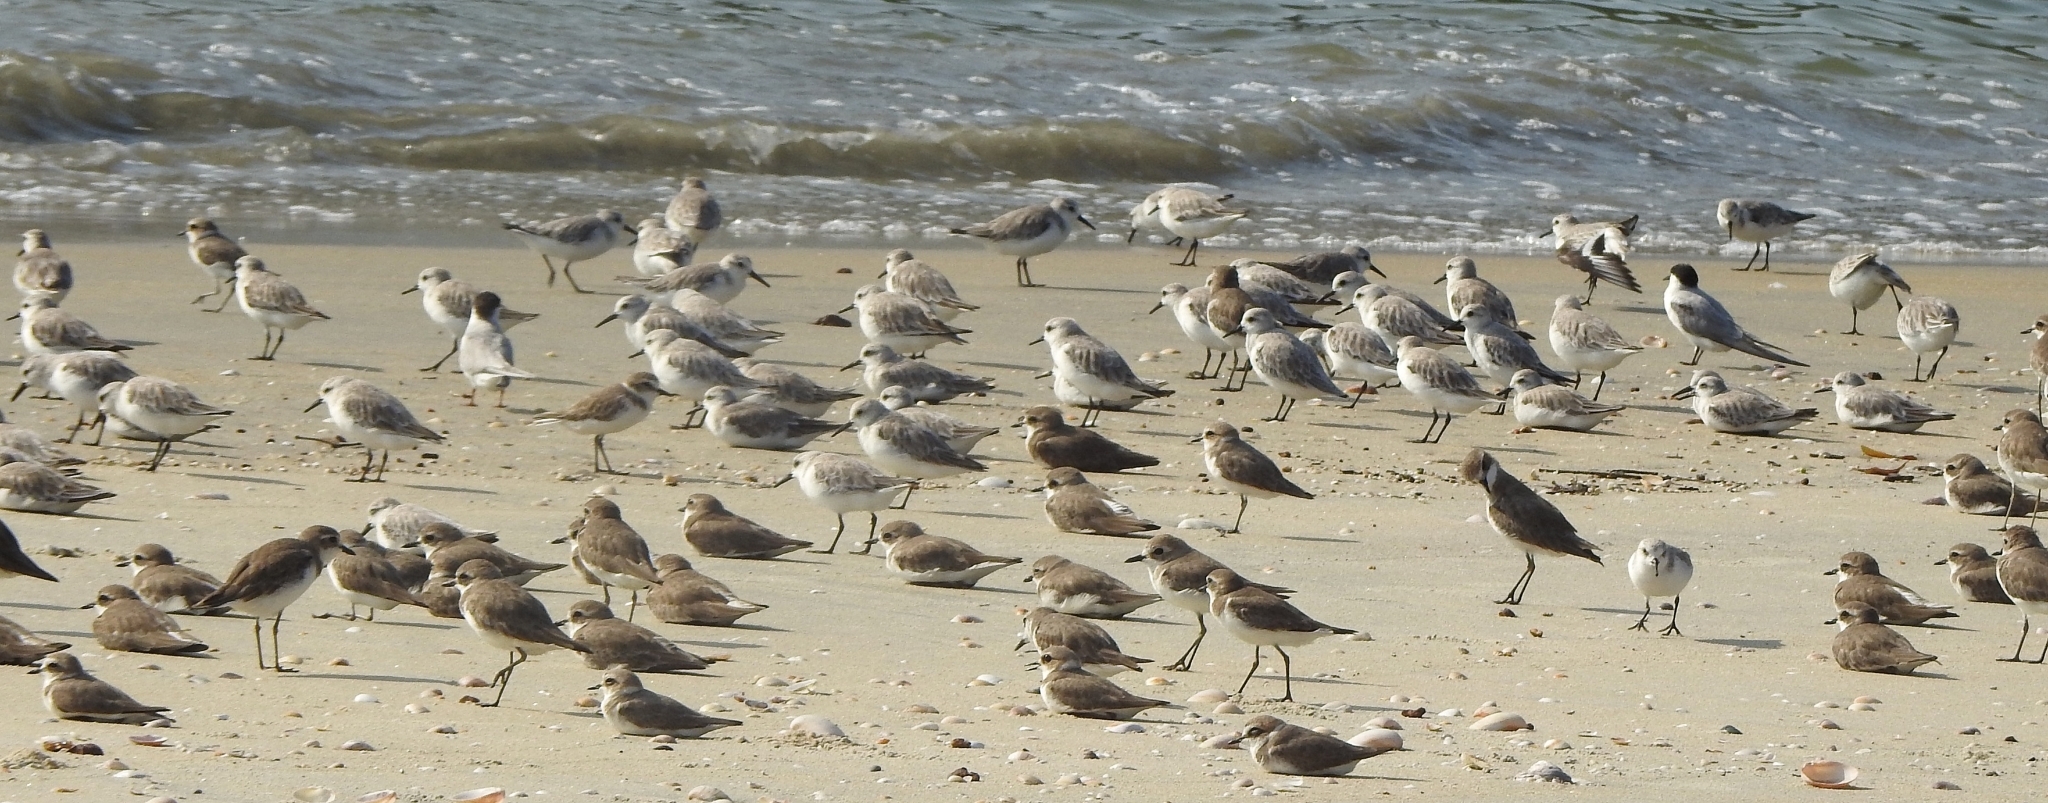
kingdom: Animalia
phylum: Chordata
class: Aves
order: Charadriiformes
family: Charadriidae
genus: Anarhynchus
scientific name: Anarhynchus
